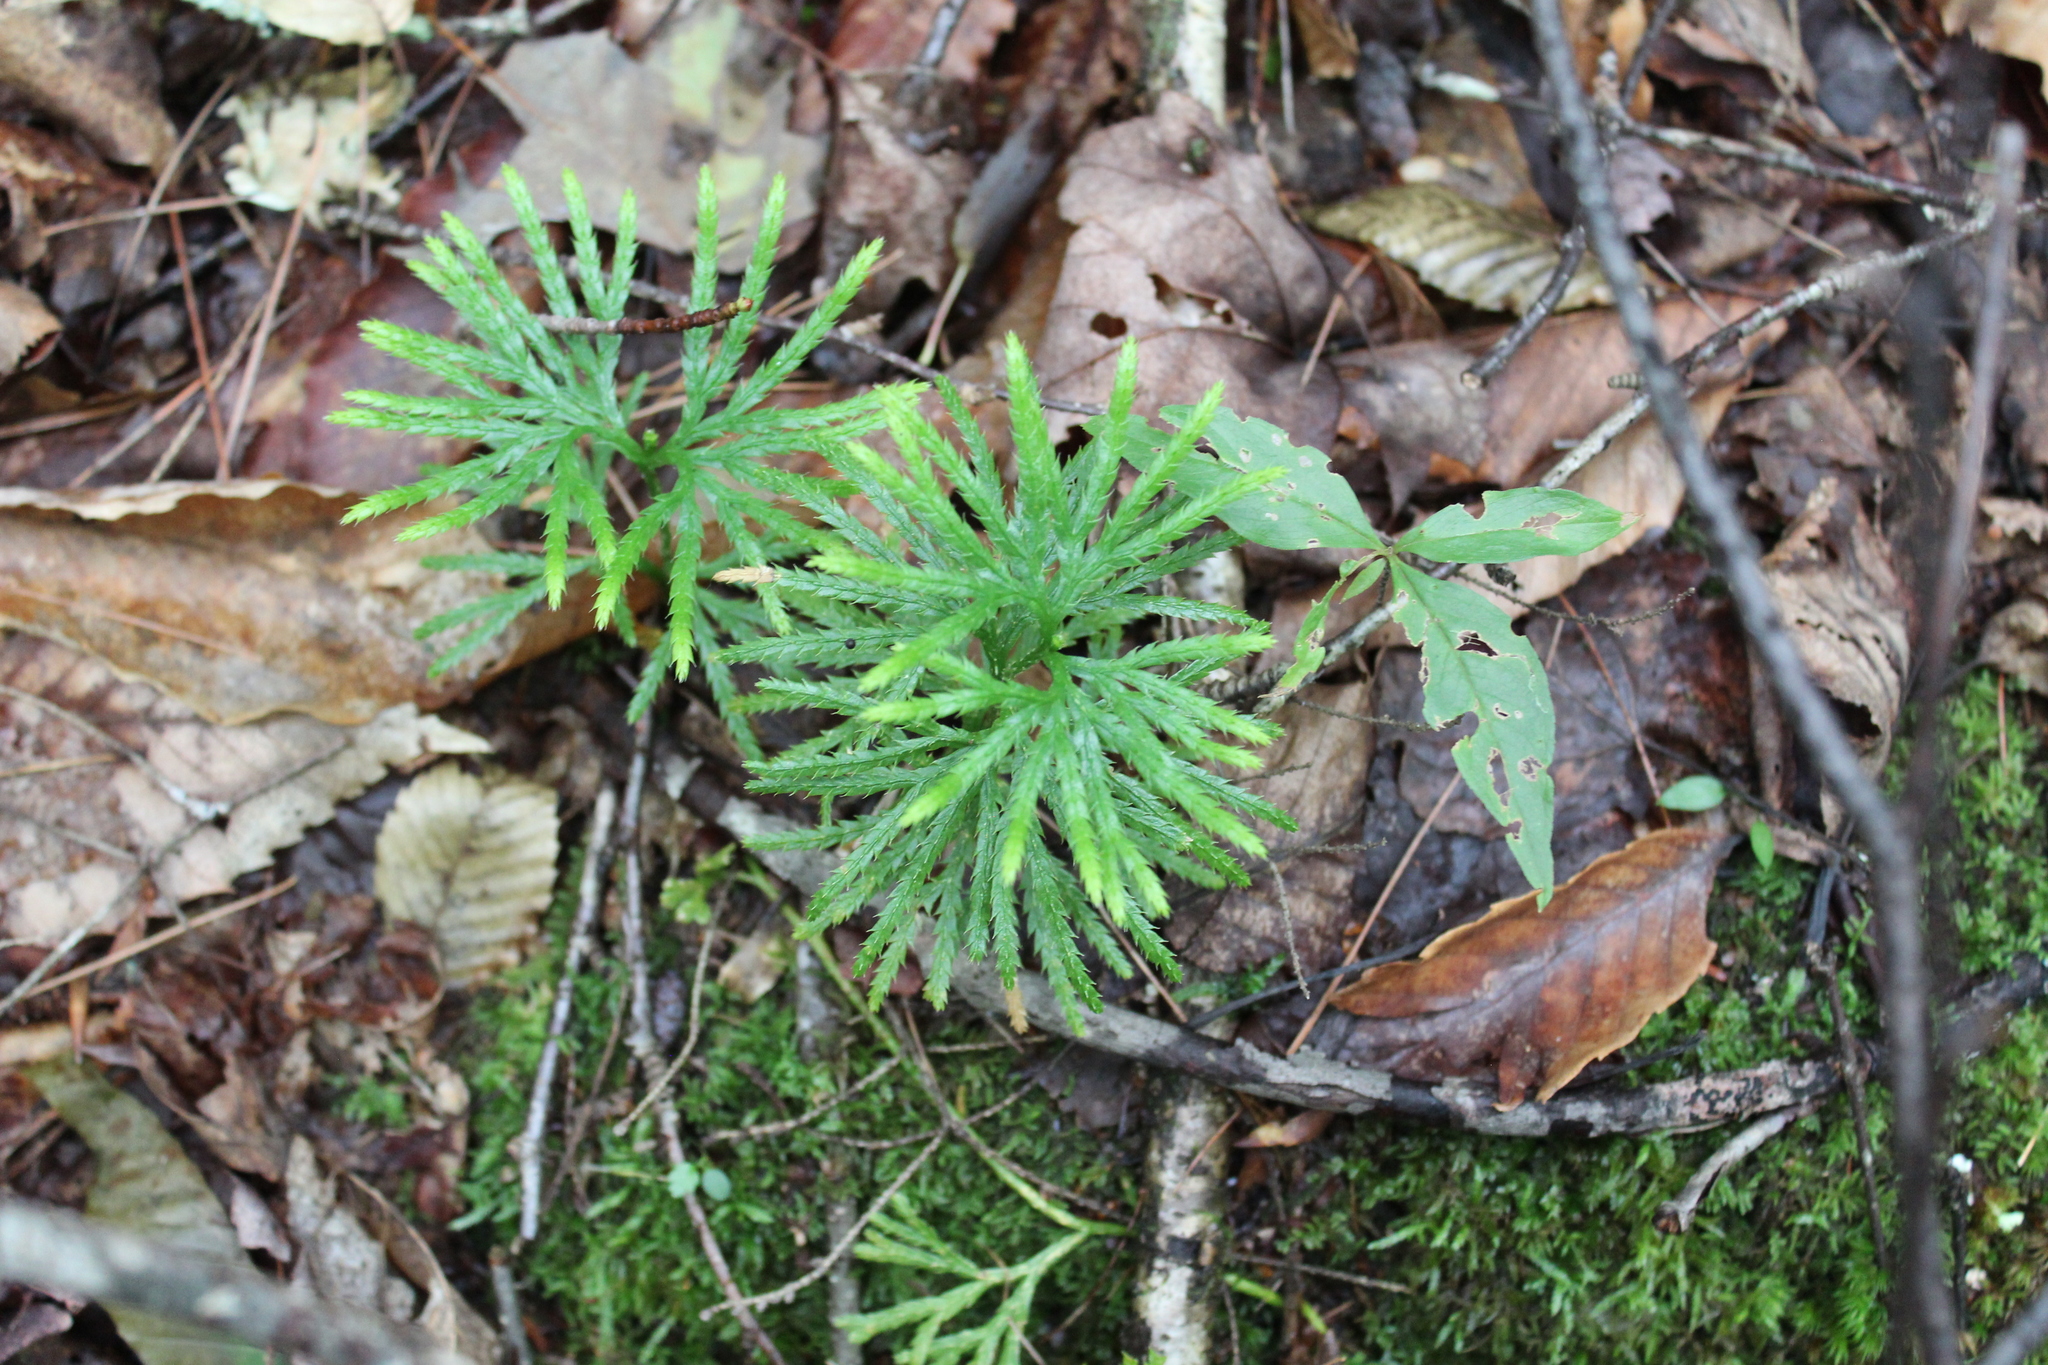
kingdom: Plantae
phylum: Tracheophyta
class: Lycopodiopsida
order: Lycopodiales
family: Lycopodiaceae
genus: Diphasiastrum
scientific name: Diphasiastrum digitatum
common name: Southern running-pine
